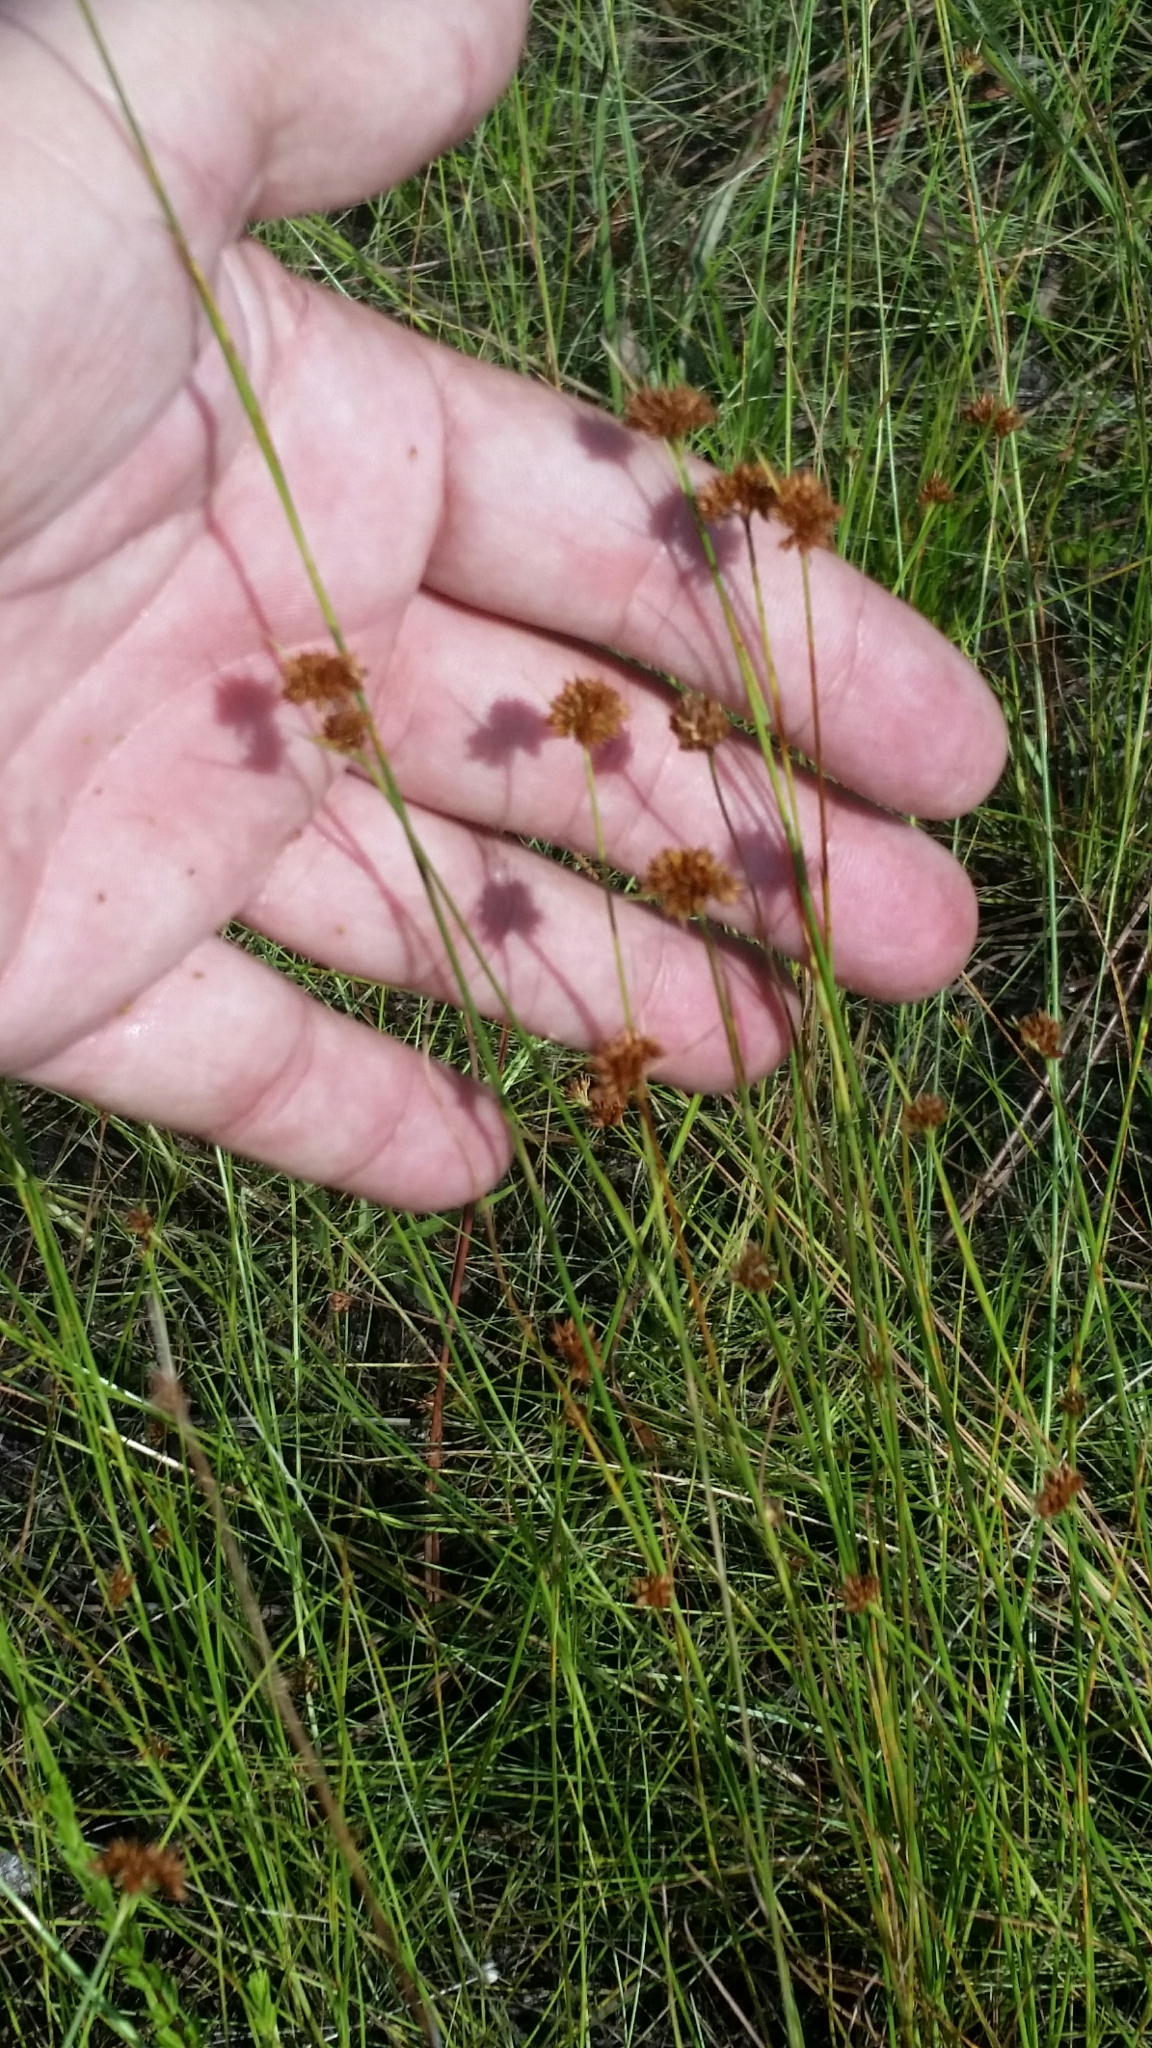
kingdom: Plantae
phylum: Tracheophyta
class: Liliopsida
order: Poales
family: Cyperaceae
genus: Rhynchospora
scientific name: Rhynchospora fernaldii
